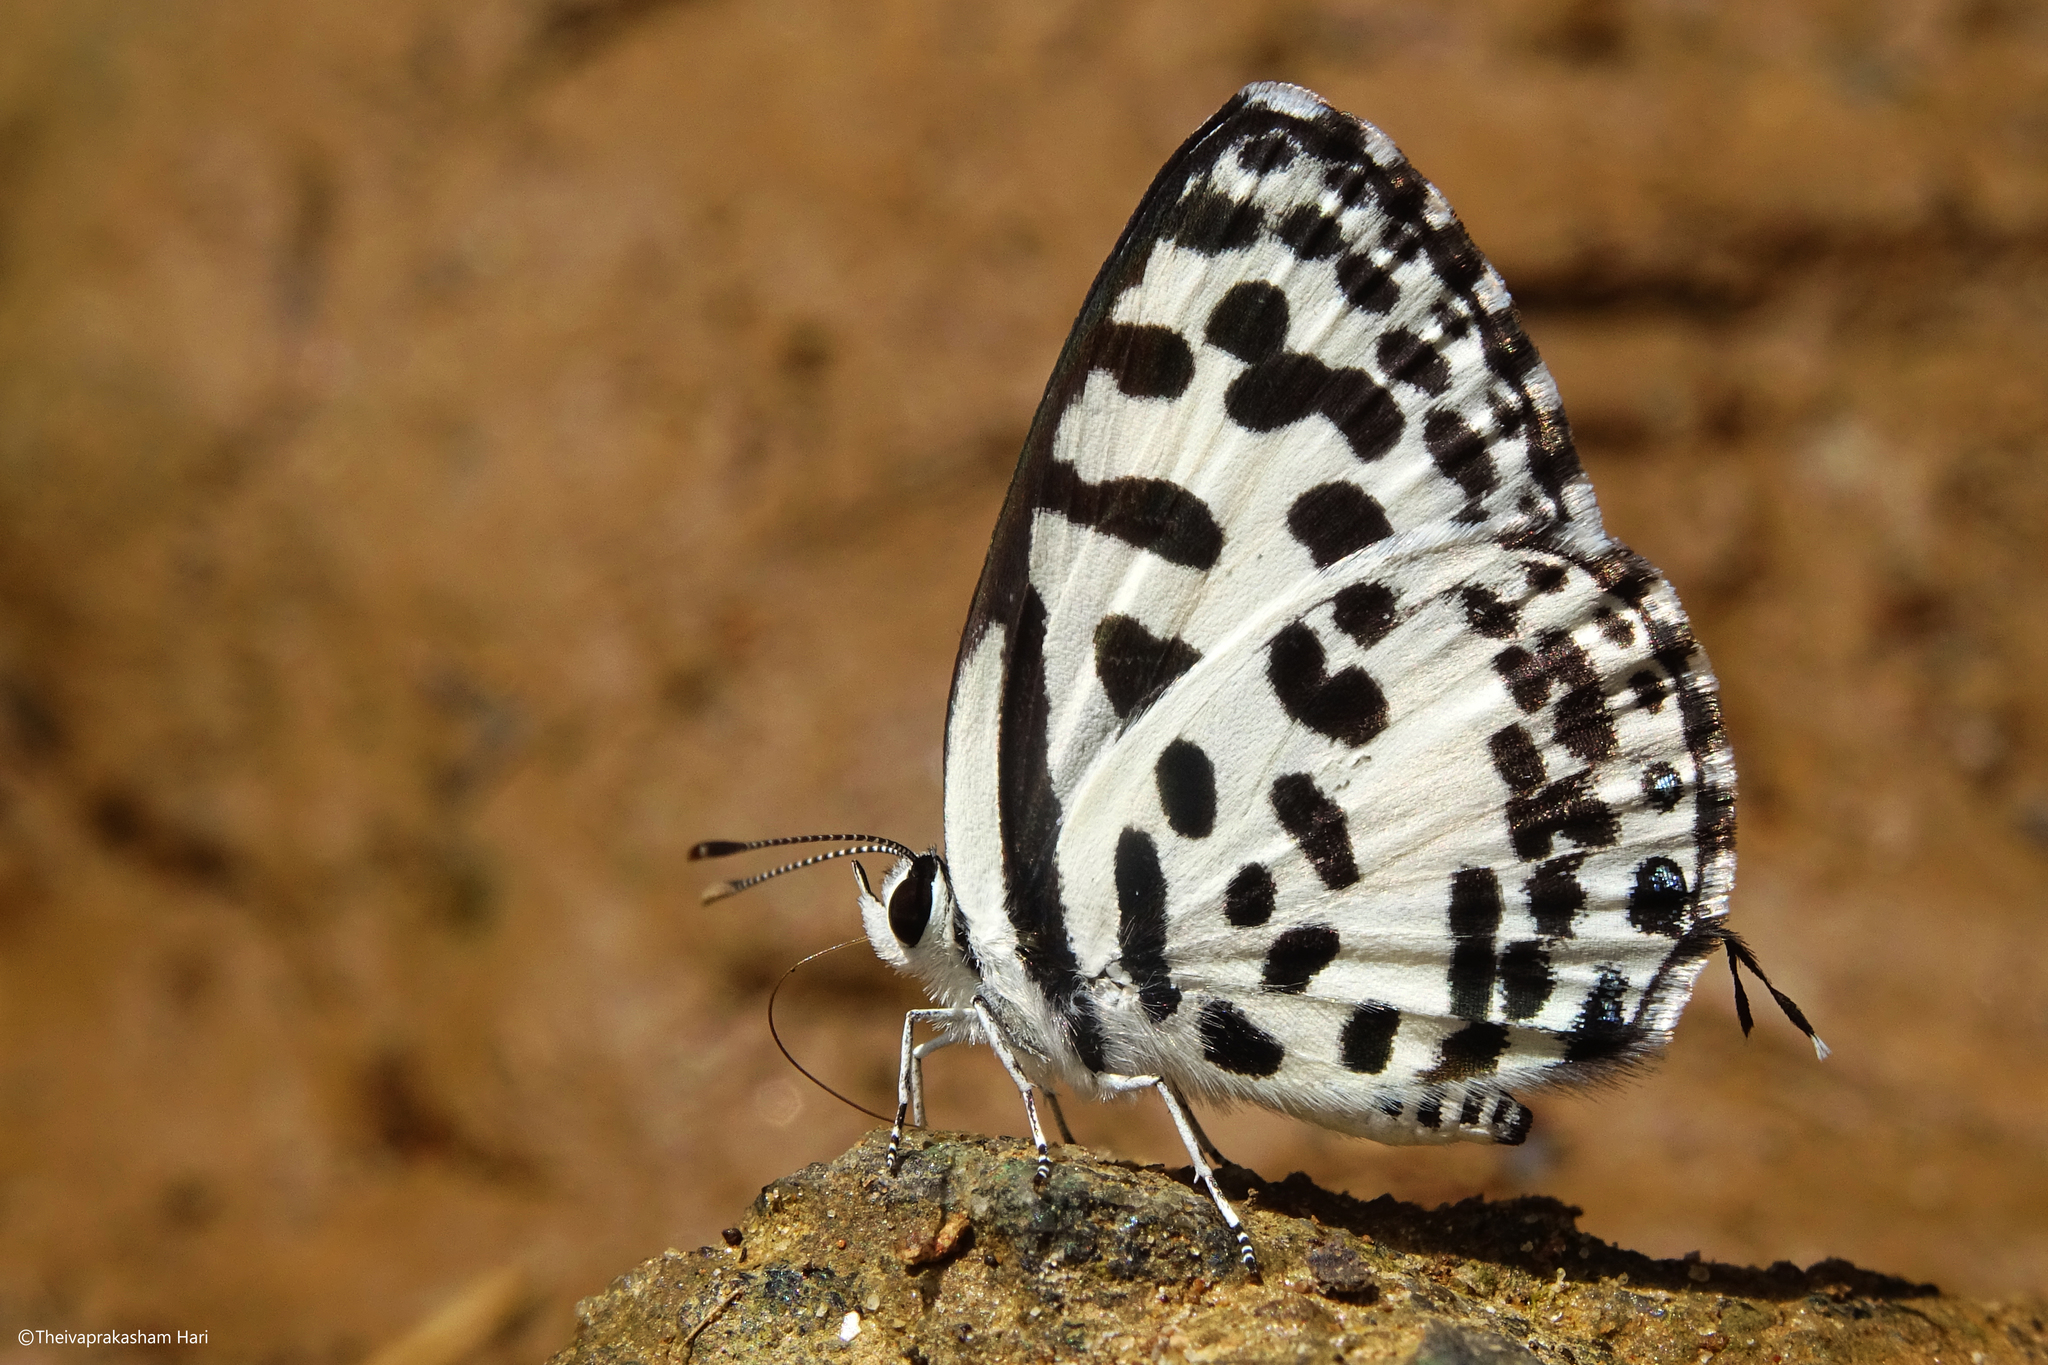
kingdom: Animalia
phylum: Arthropoda
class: Insecta
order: Lepidoptera
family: Lycaenidae
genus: Castalius
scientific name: Castalius rosimon
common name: Common pierrot
